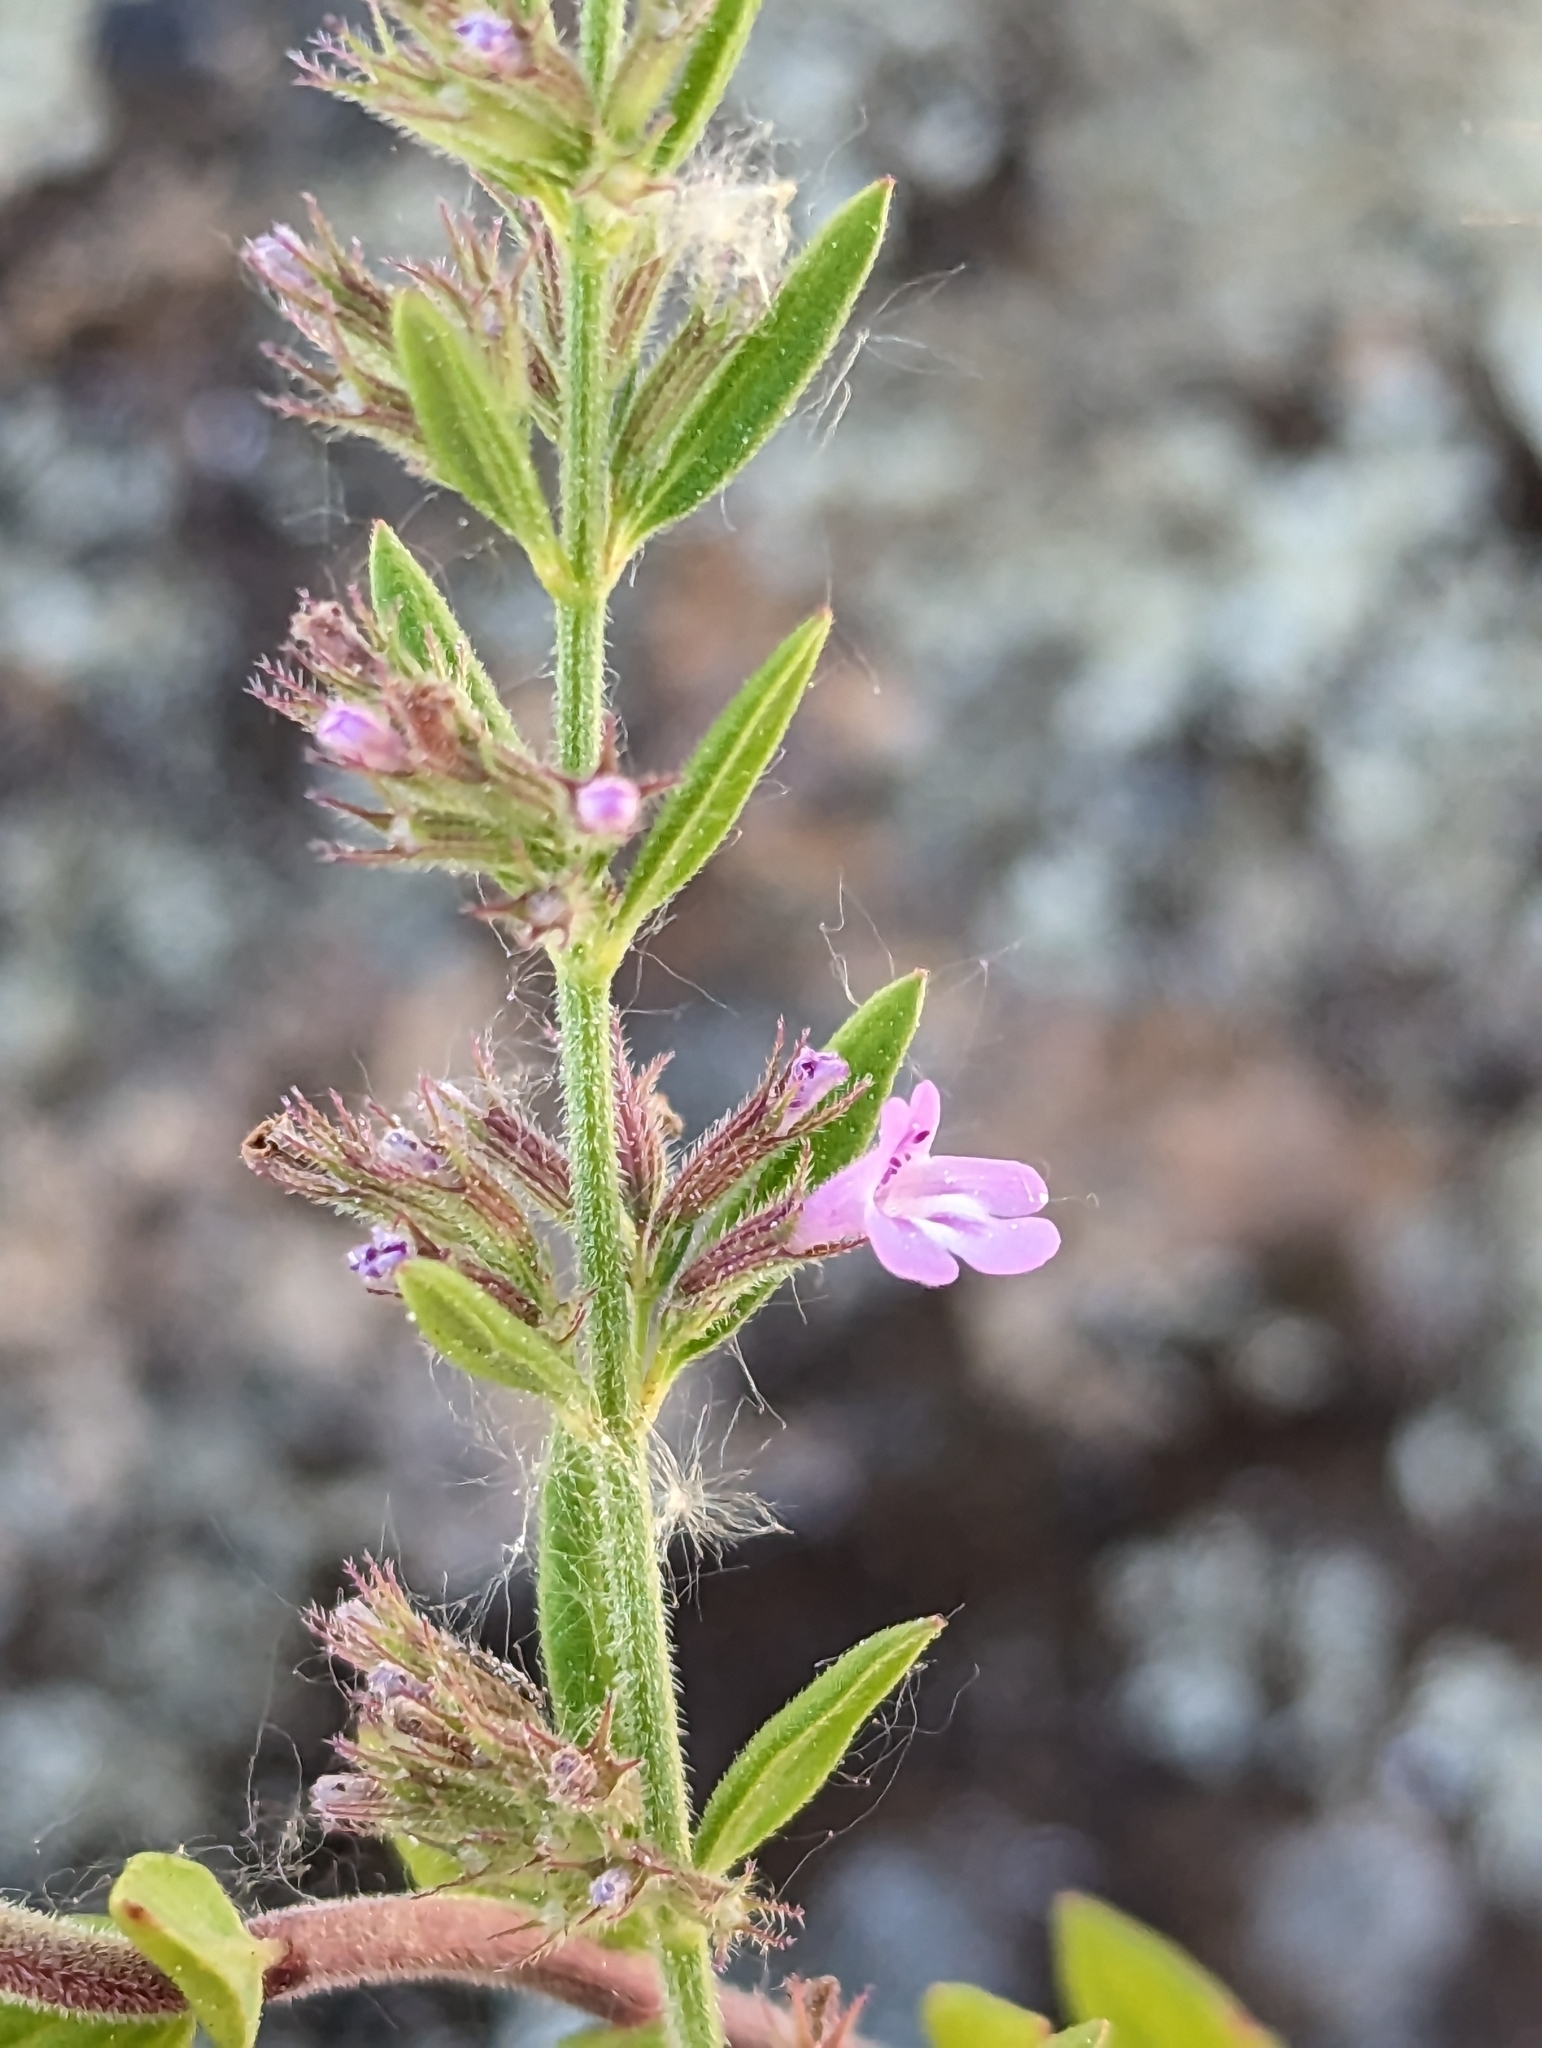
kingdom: Plantae
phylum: Tracheophyta
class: Magnoliopsida
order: Lamiales
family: Lamiaceae
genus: Micromeria
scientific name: Micromeria graeca
